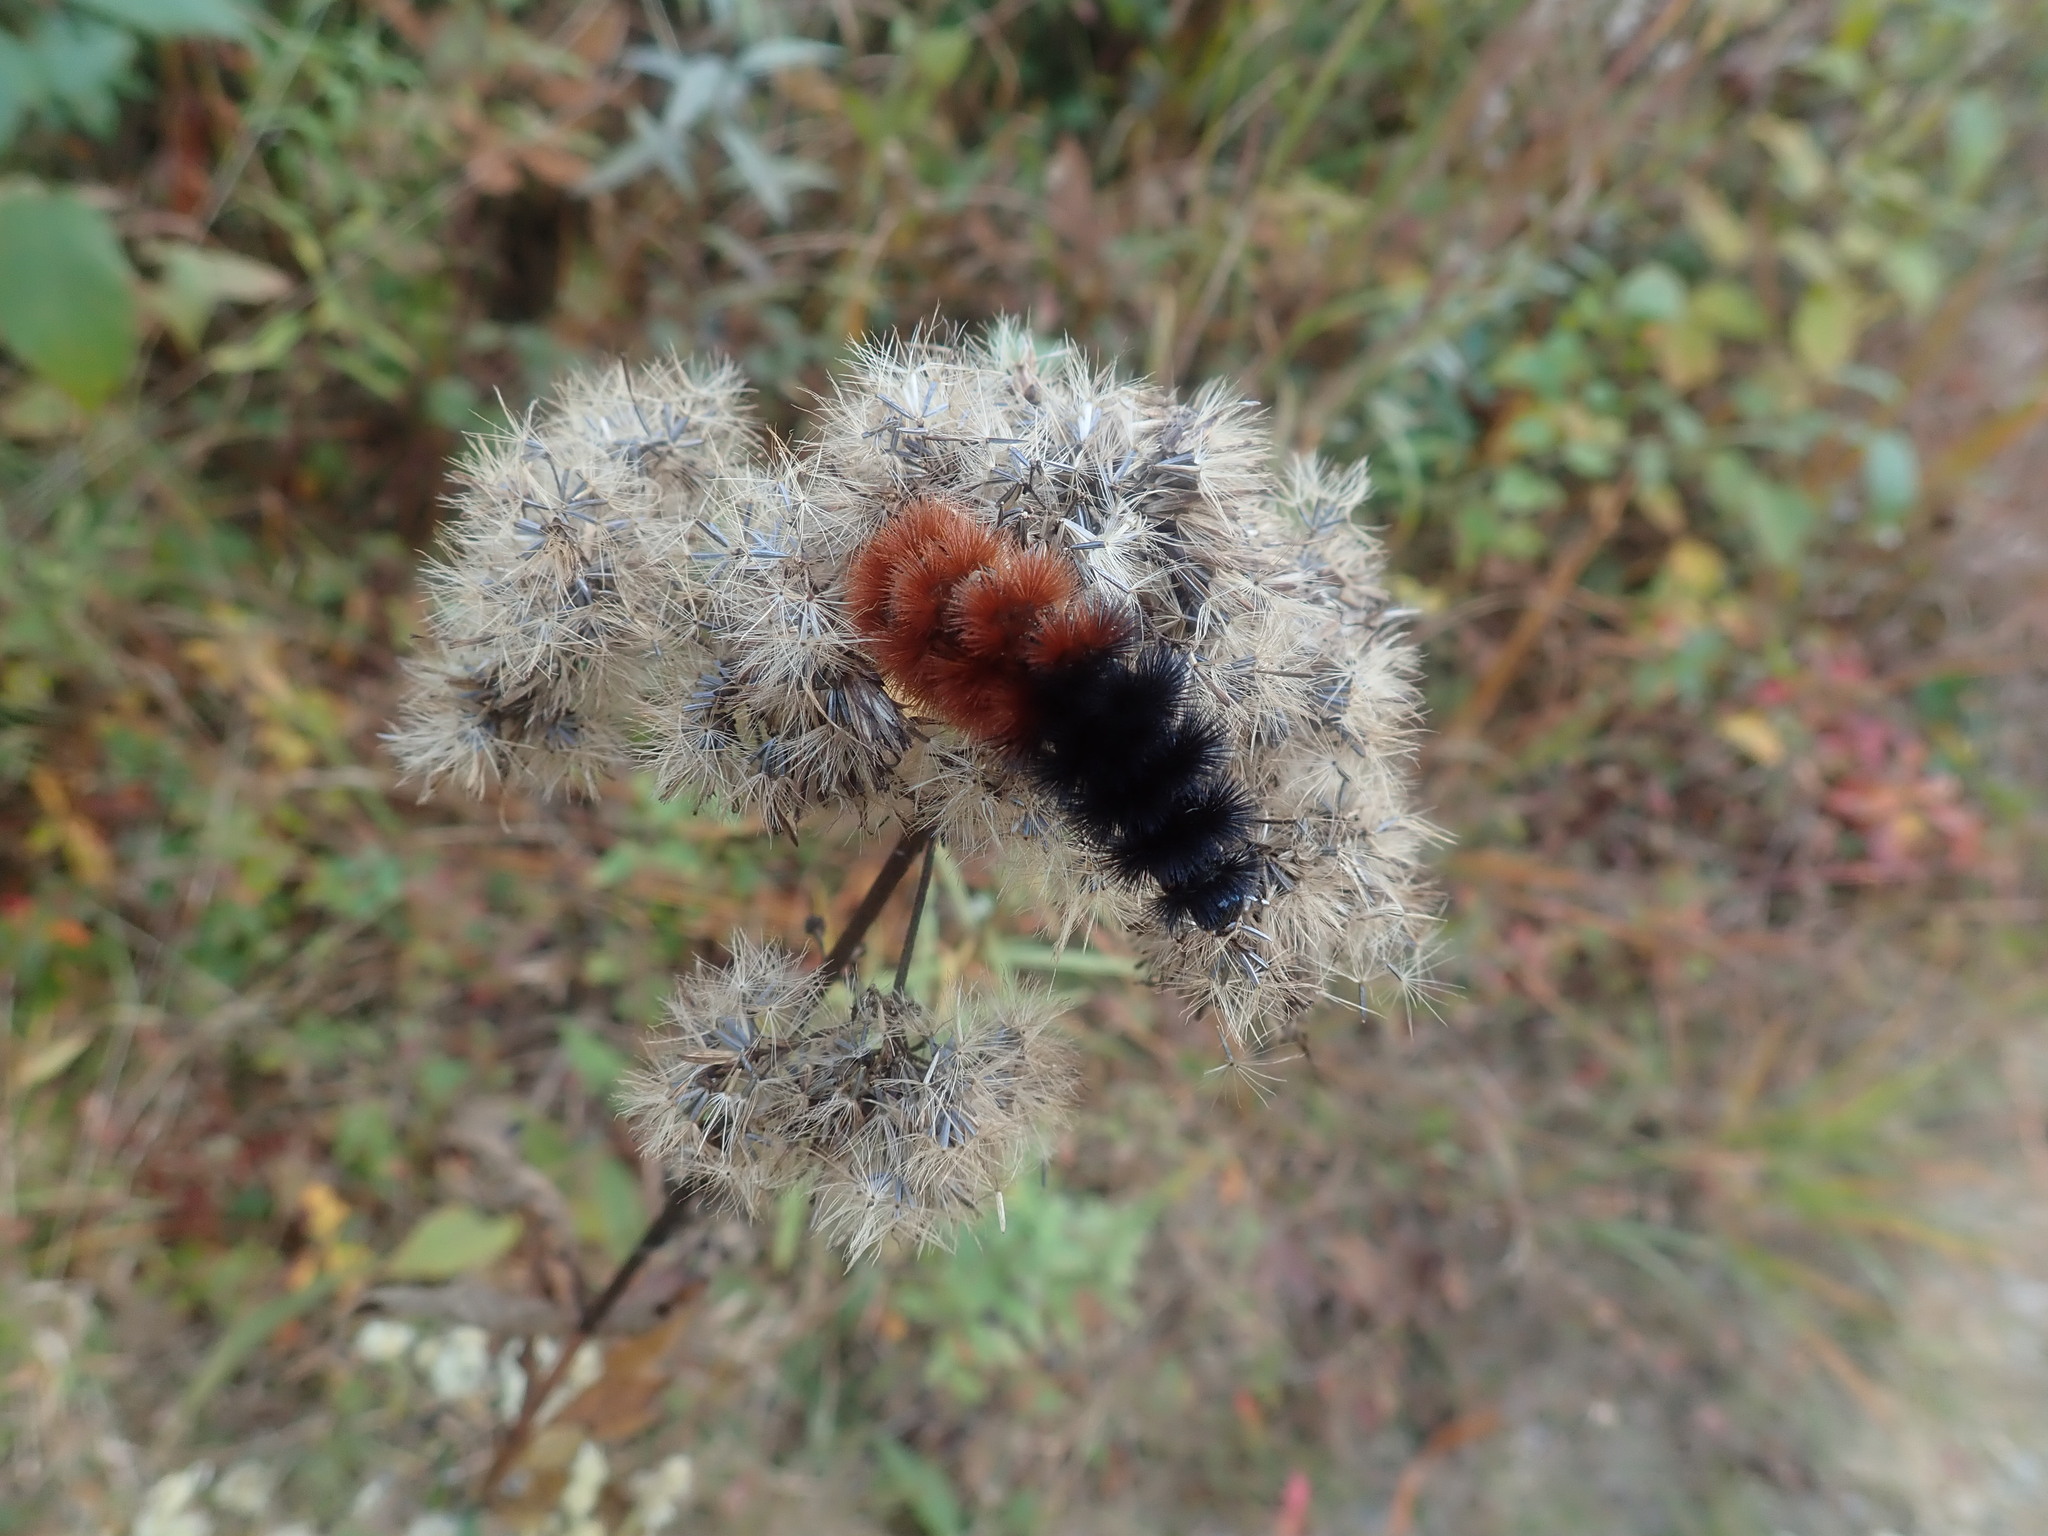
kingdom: Animalia
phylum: Arthropoda
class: Insecta
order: Lepidoptera
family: Erebidae
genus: Pyrrharctia
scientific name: Pyrrharctia isabella
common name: Isabella tiger moth
